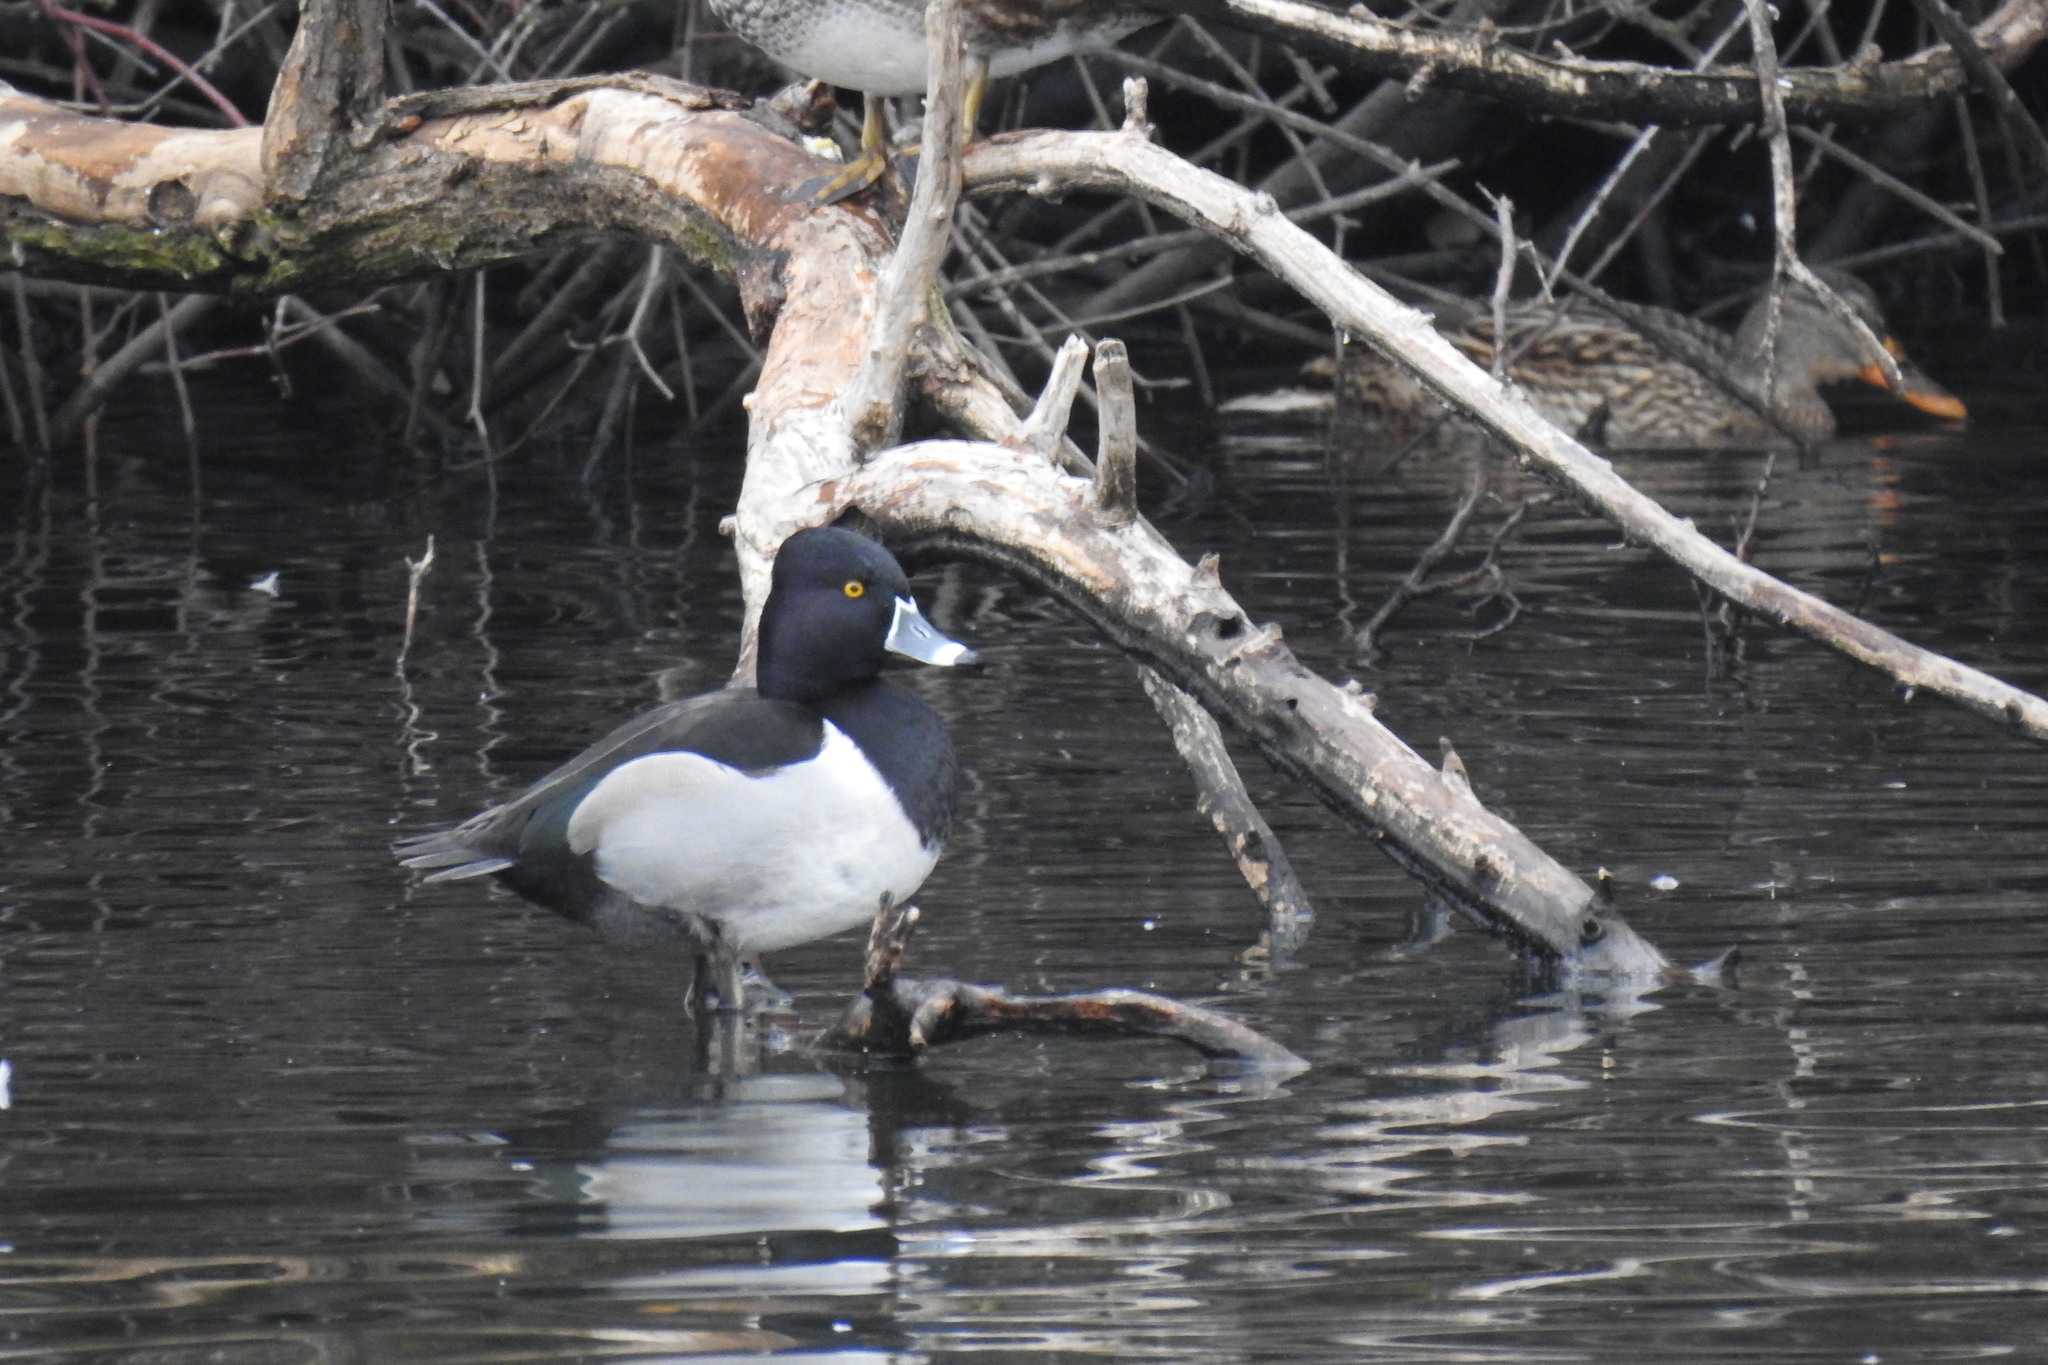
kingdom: Animalia
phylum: Chordata
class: Aves
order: Anseriformes
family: Anatidae
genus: Aythya
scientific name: Aythya collaris
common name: Ring-necked duck
